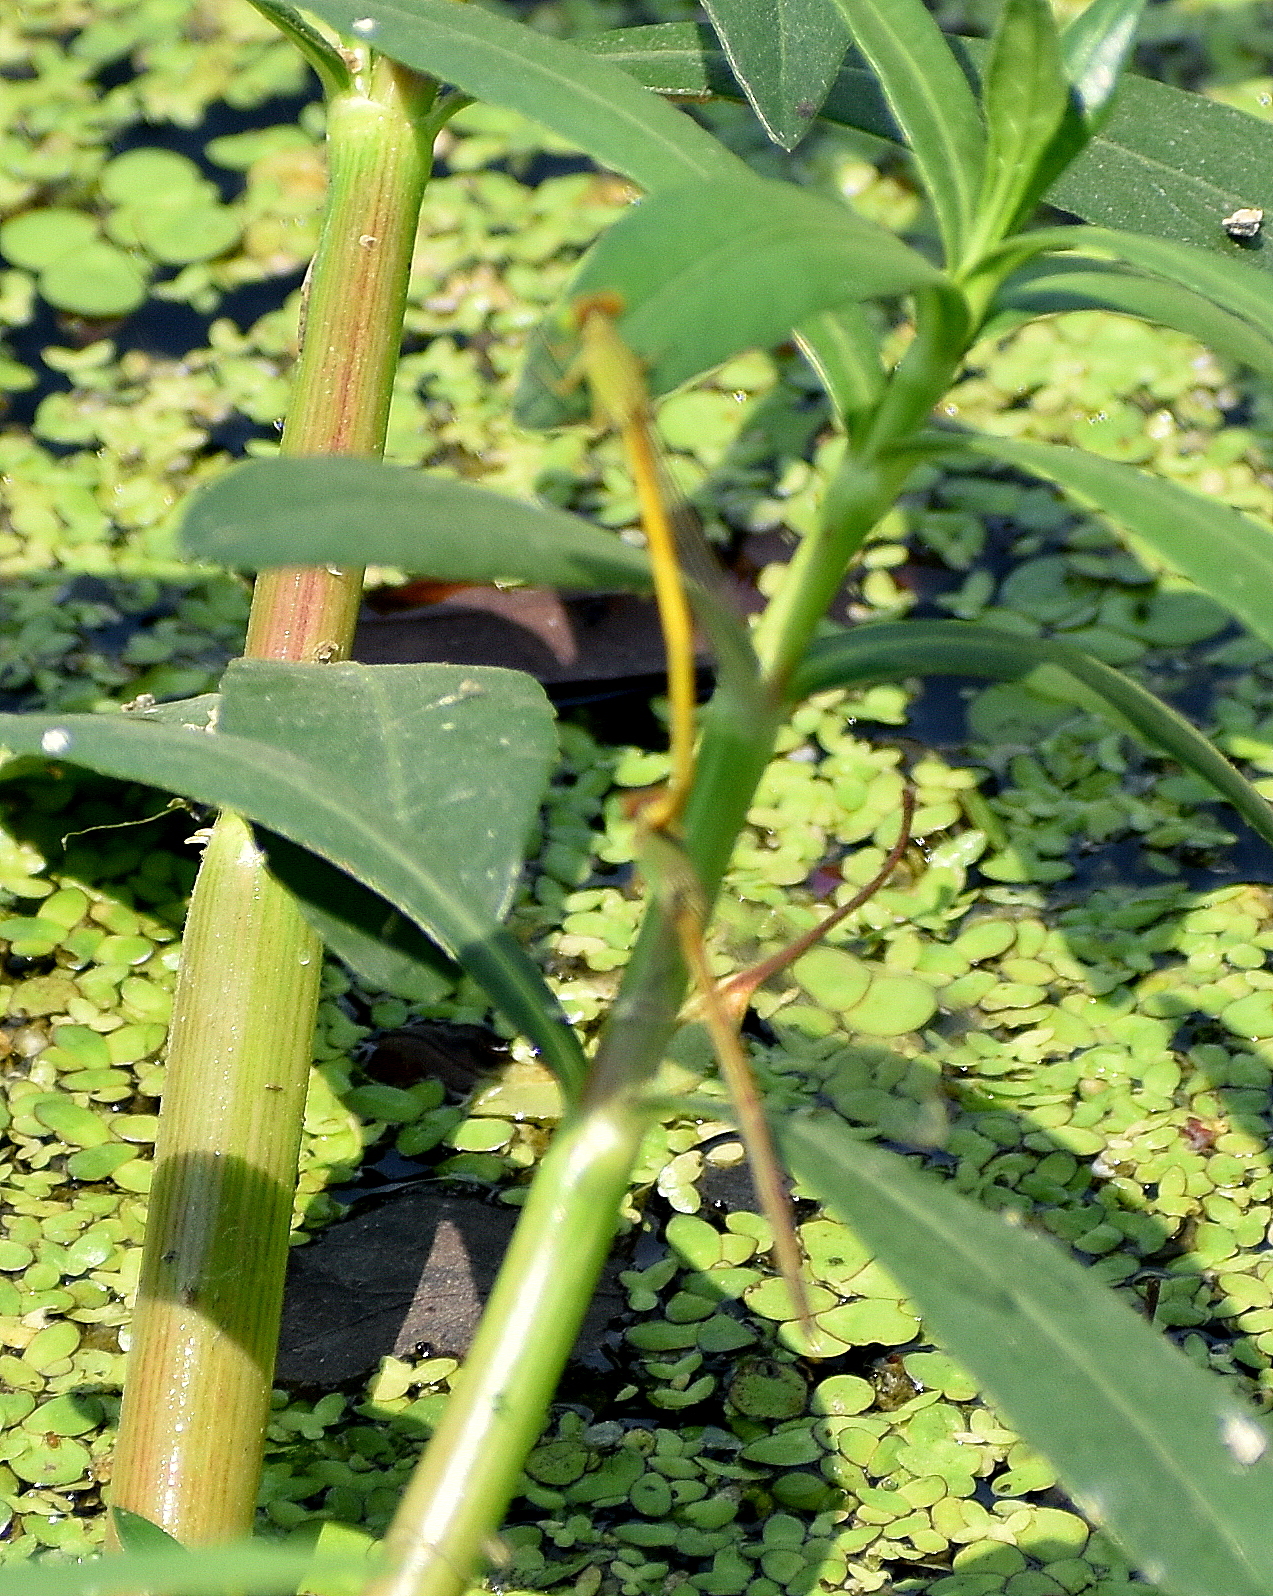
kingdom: Animalia
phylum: Arthropoda
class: Insecta
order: Odonata
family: Coenagrionidae
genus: Ceriagrion
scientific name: Ceriagrion coromandelianum
